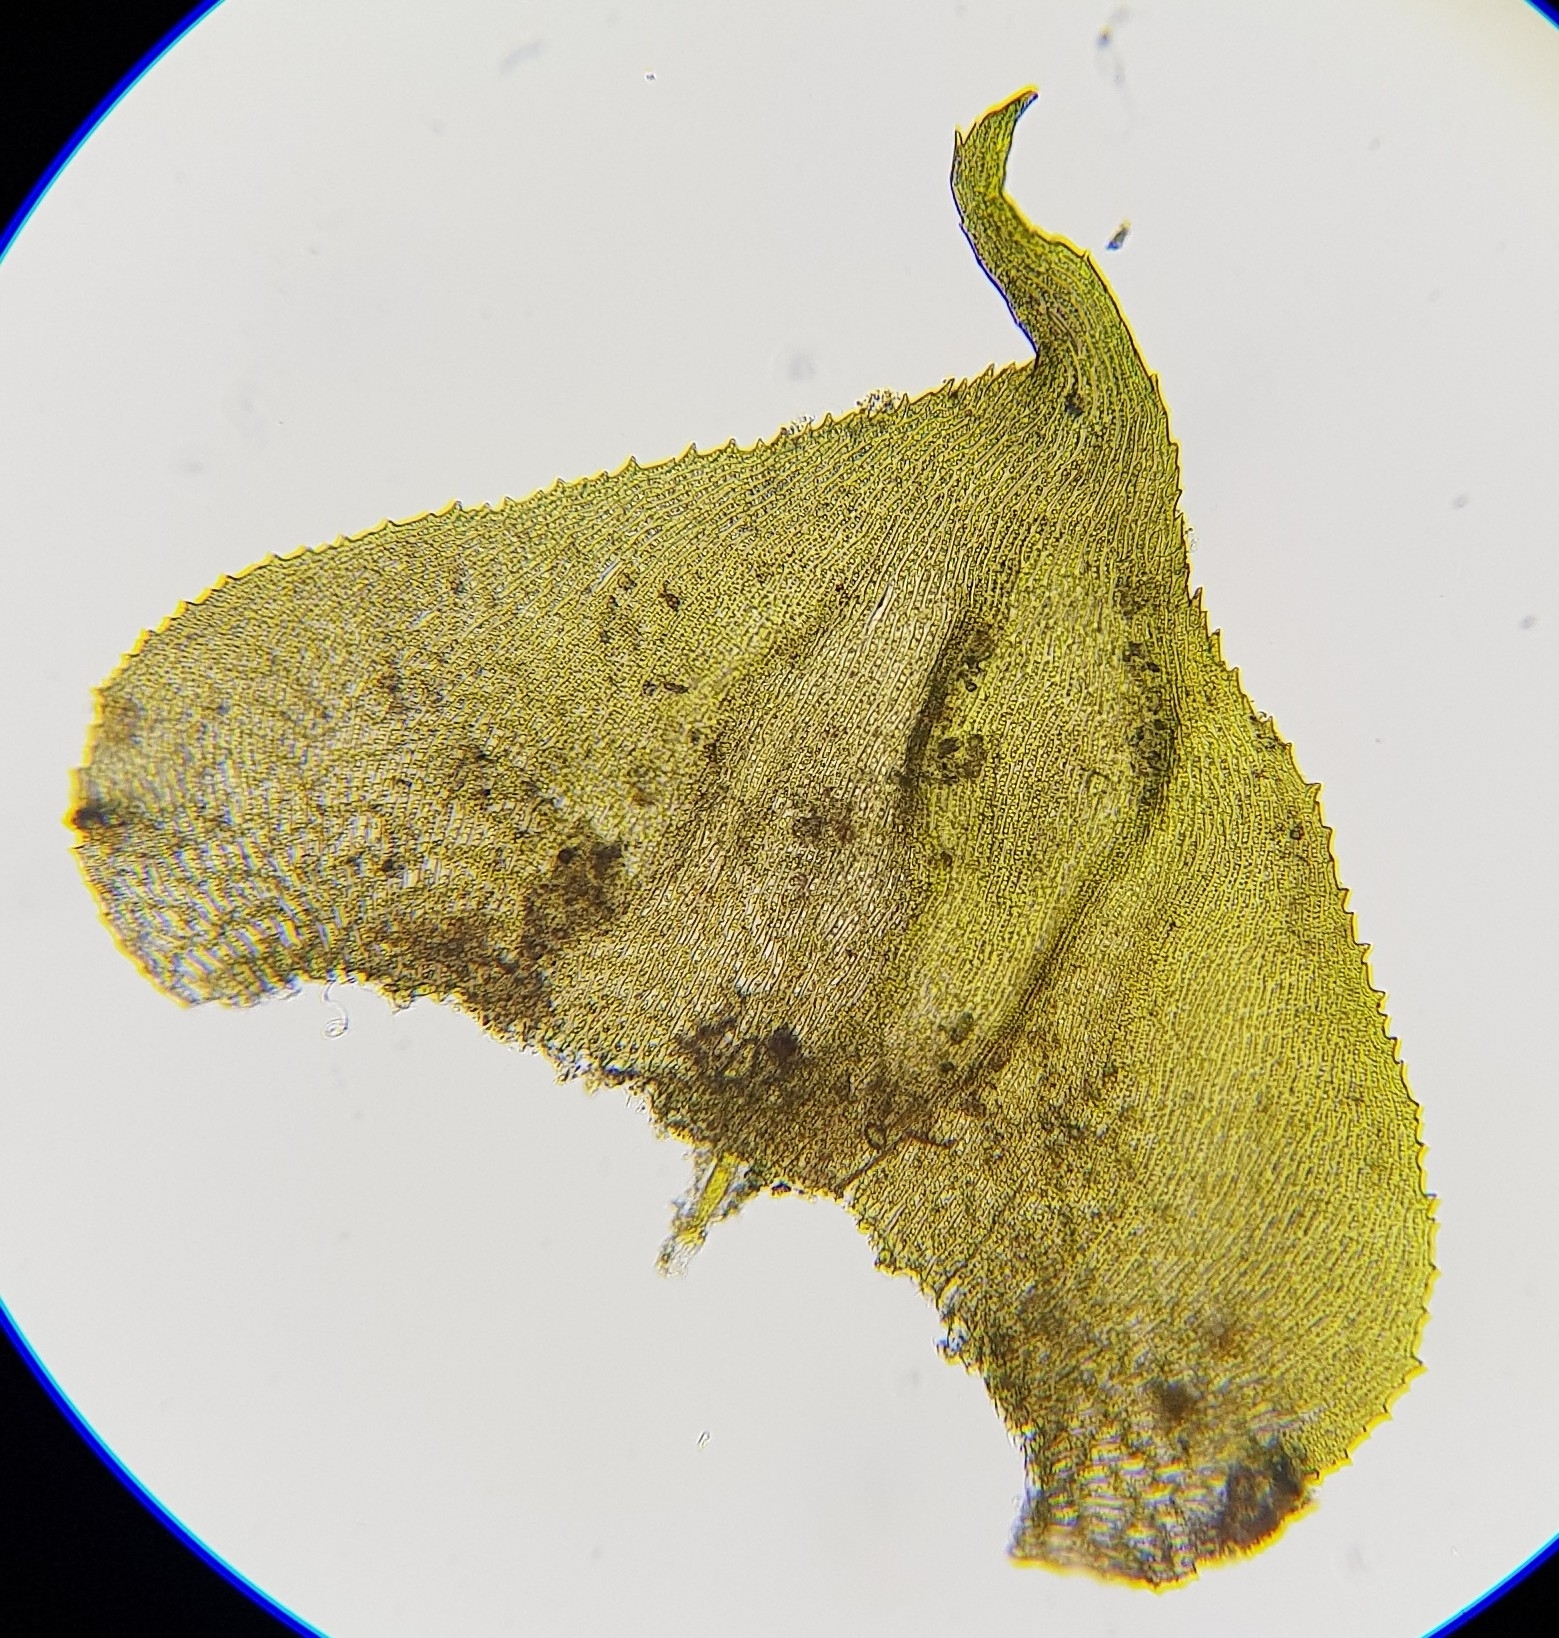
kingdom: Plantae
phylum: Bryophyta
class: Bryopsida
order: Hypnales
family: Myuriaceae
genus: Hyocomium
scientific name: Hyocomium armoricum
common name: Flagellate feather-moss
